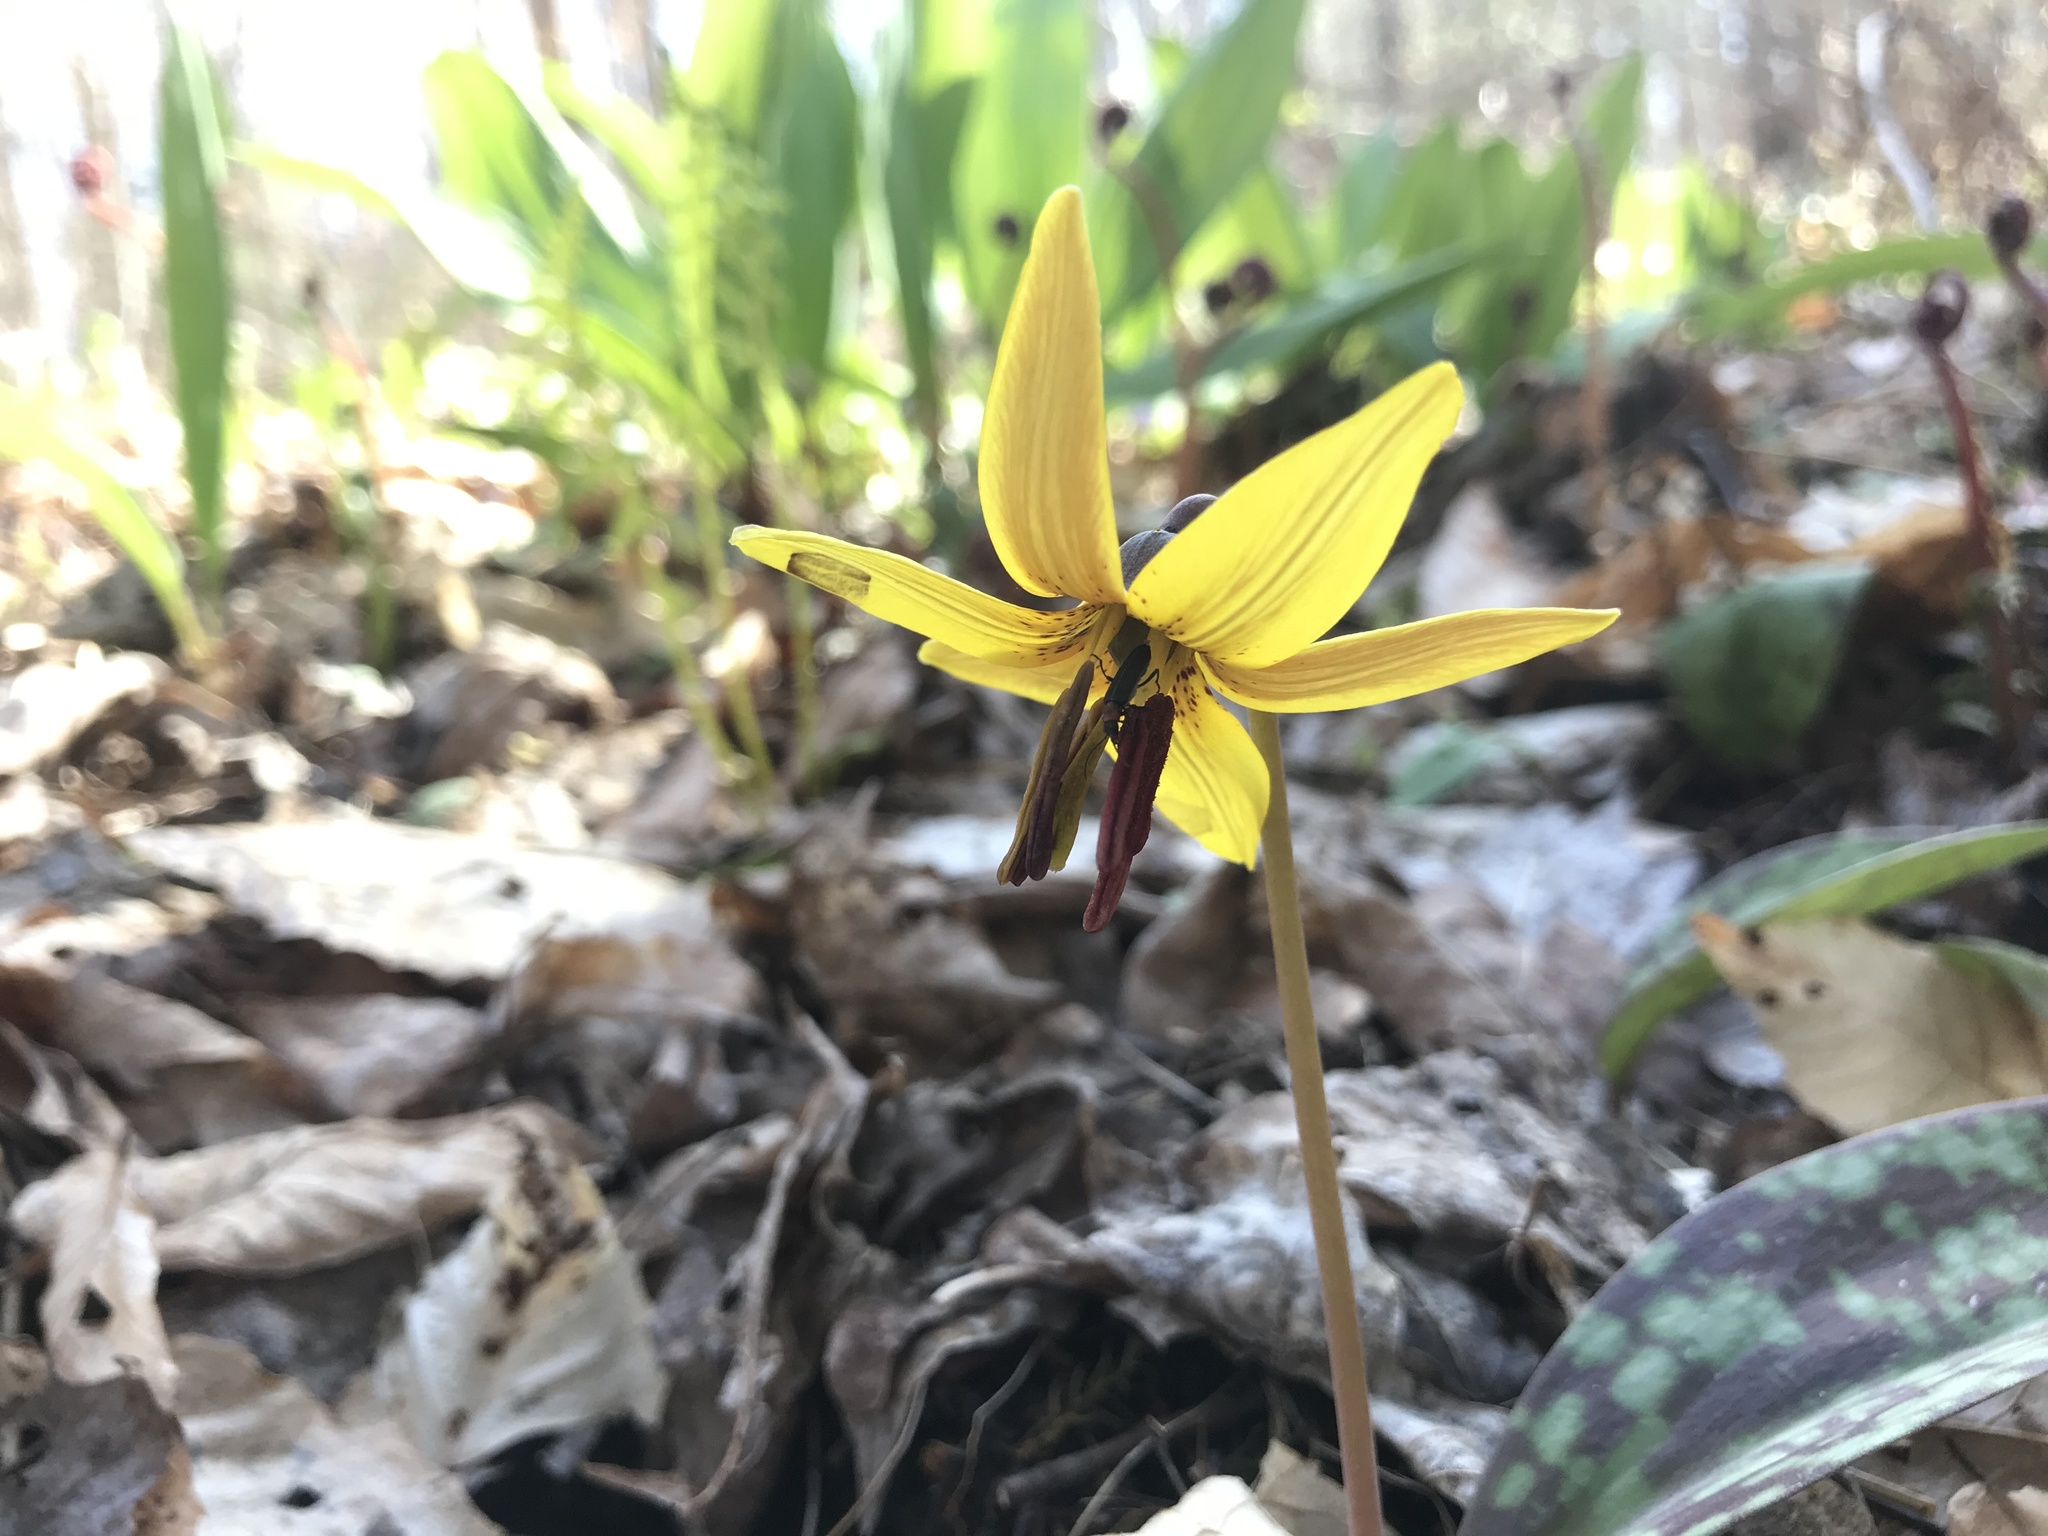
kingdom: Plantae
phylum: Tracheophyta
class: Liliopsida
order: Liliales
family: Liliaceae
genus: Erythronium
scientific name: Erythronium americanum
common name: Yellow adder's-tongue
